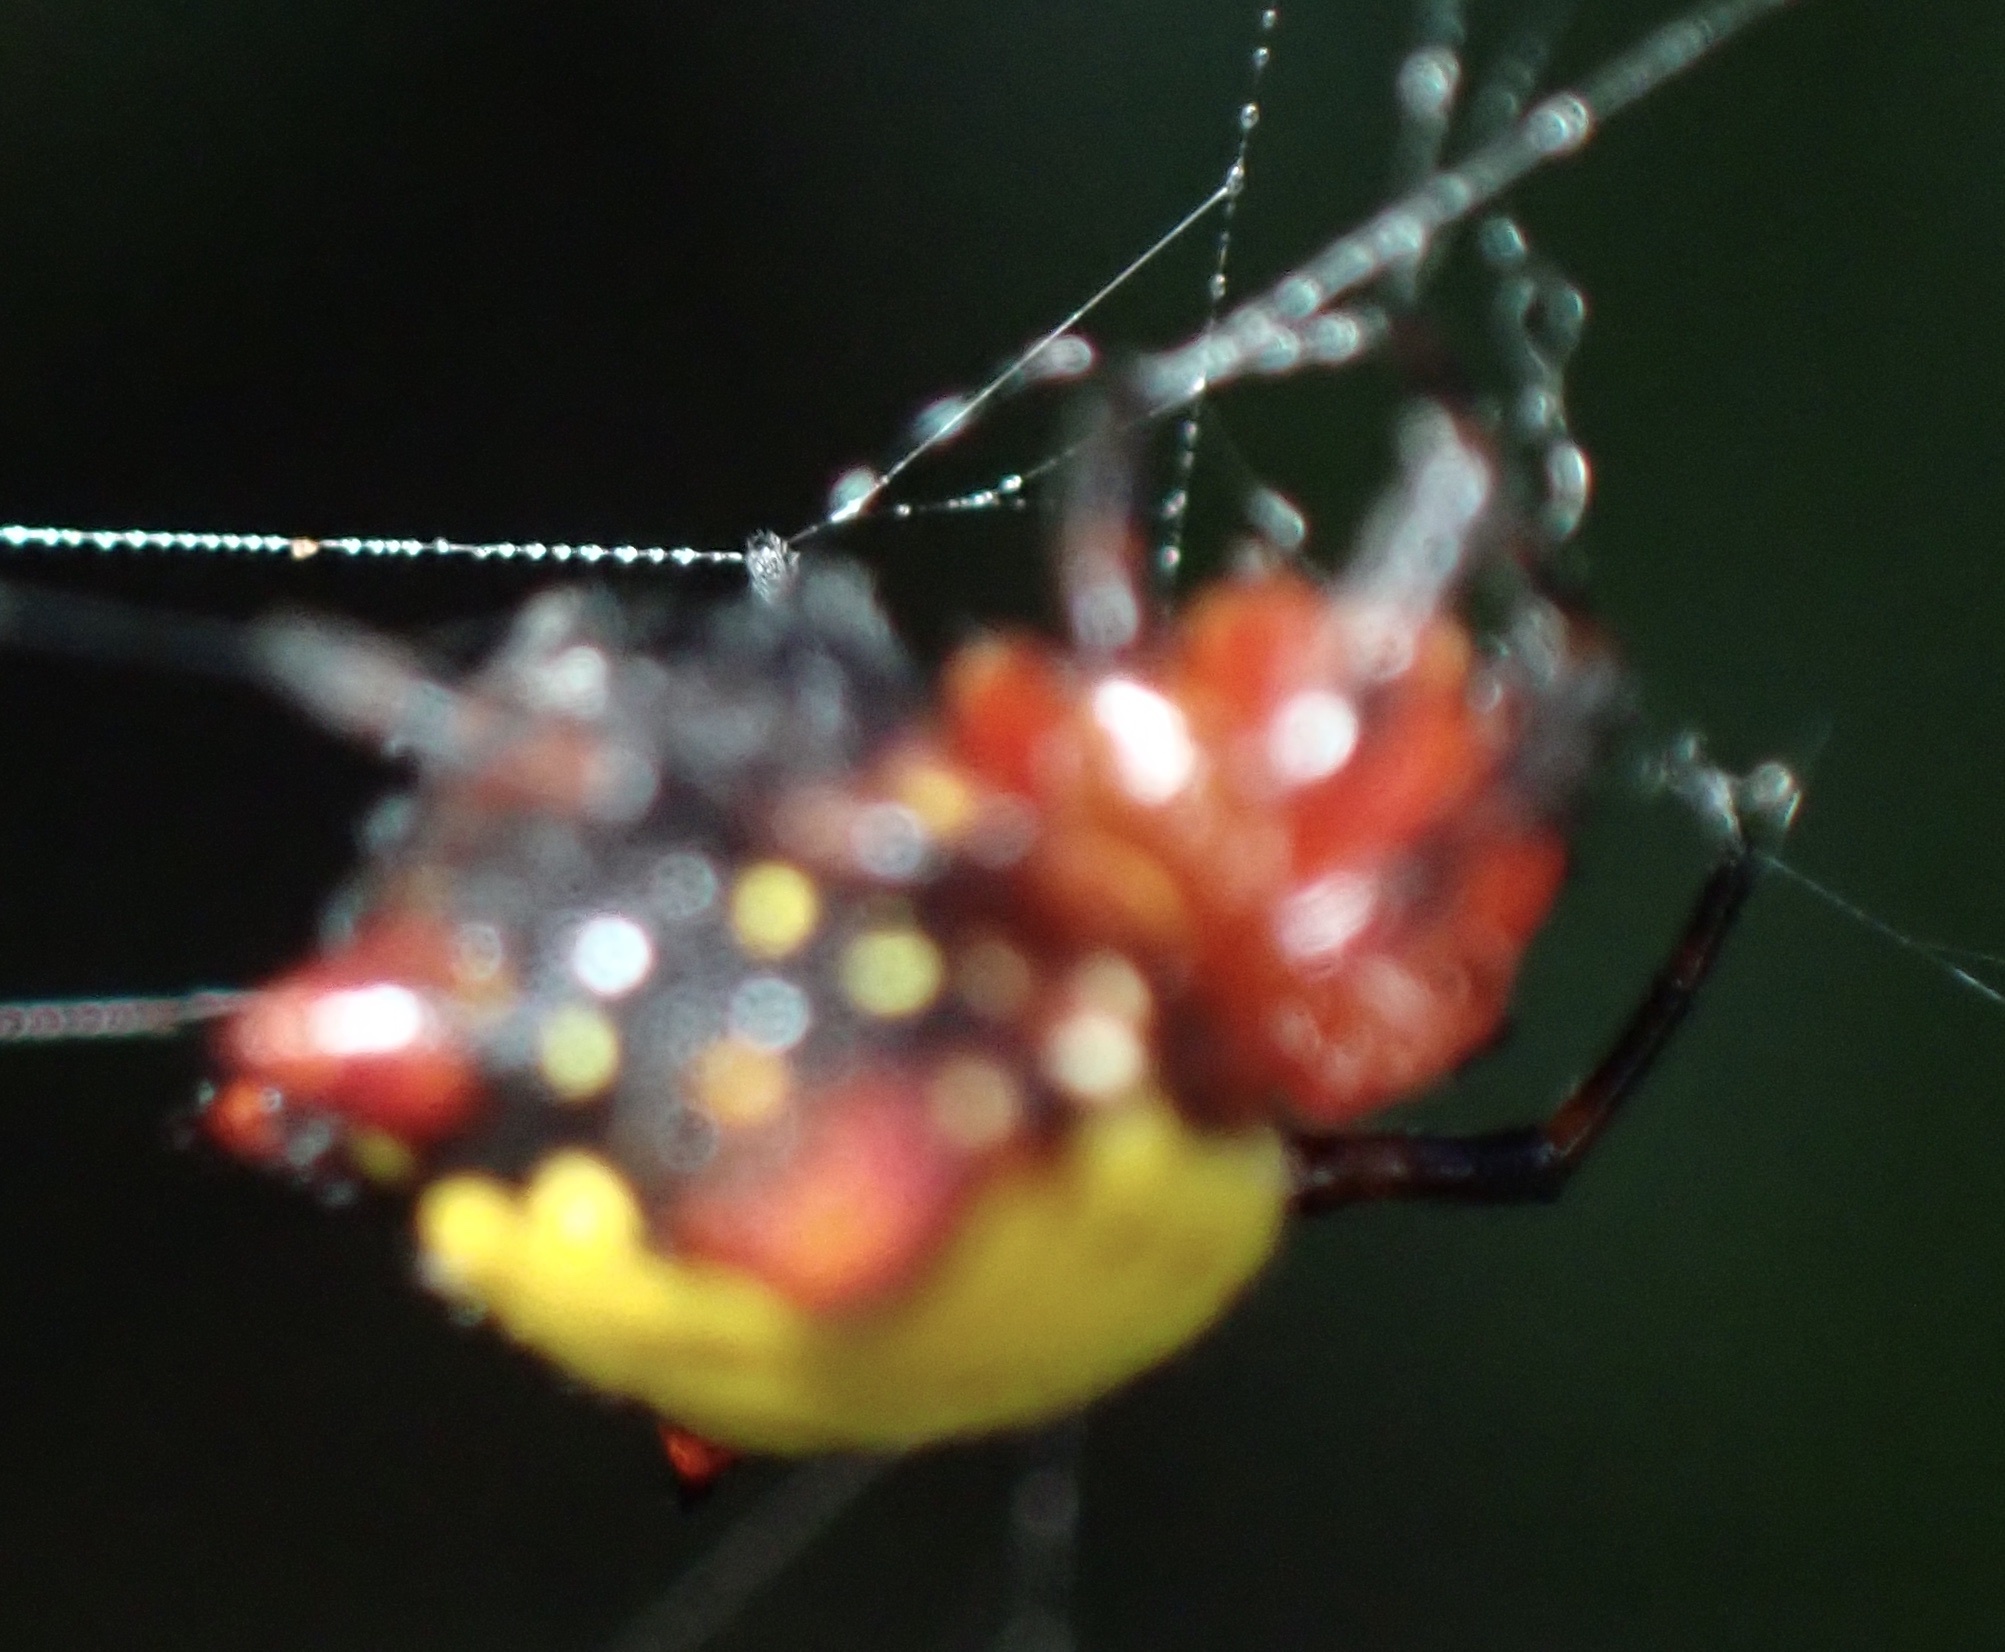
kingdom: Animalia
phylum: Arthropoda
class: Arachnida
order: Araneae
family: Araneidae
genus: Gasteracantha
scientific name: Gasteracantha cancriformis
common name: Orb weavers
